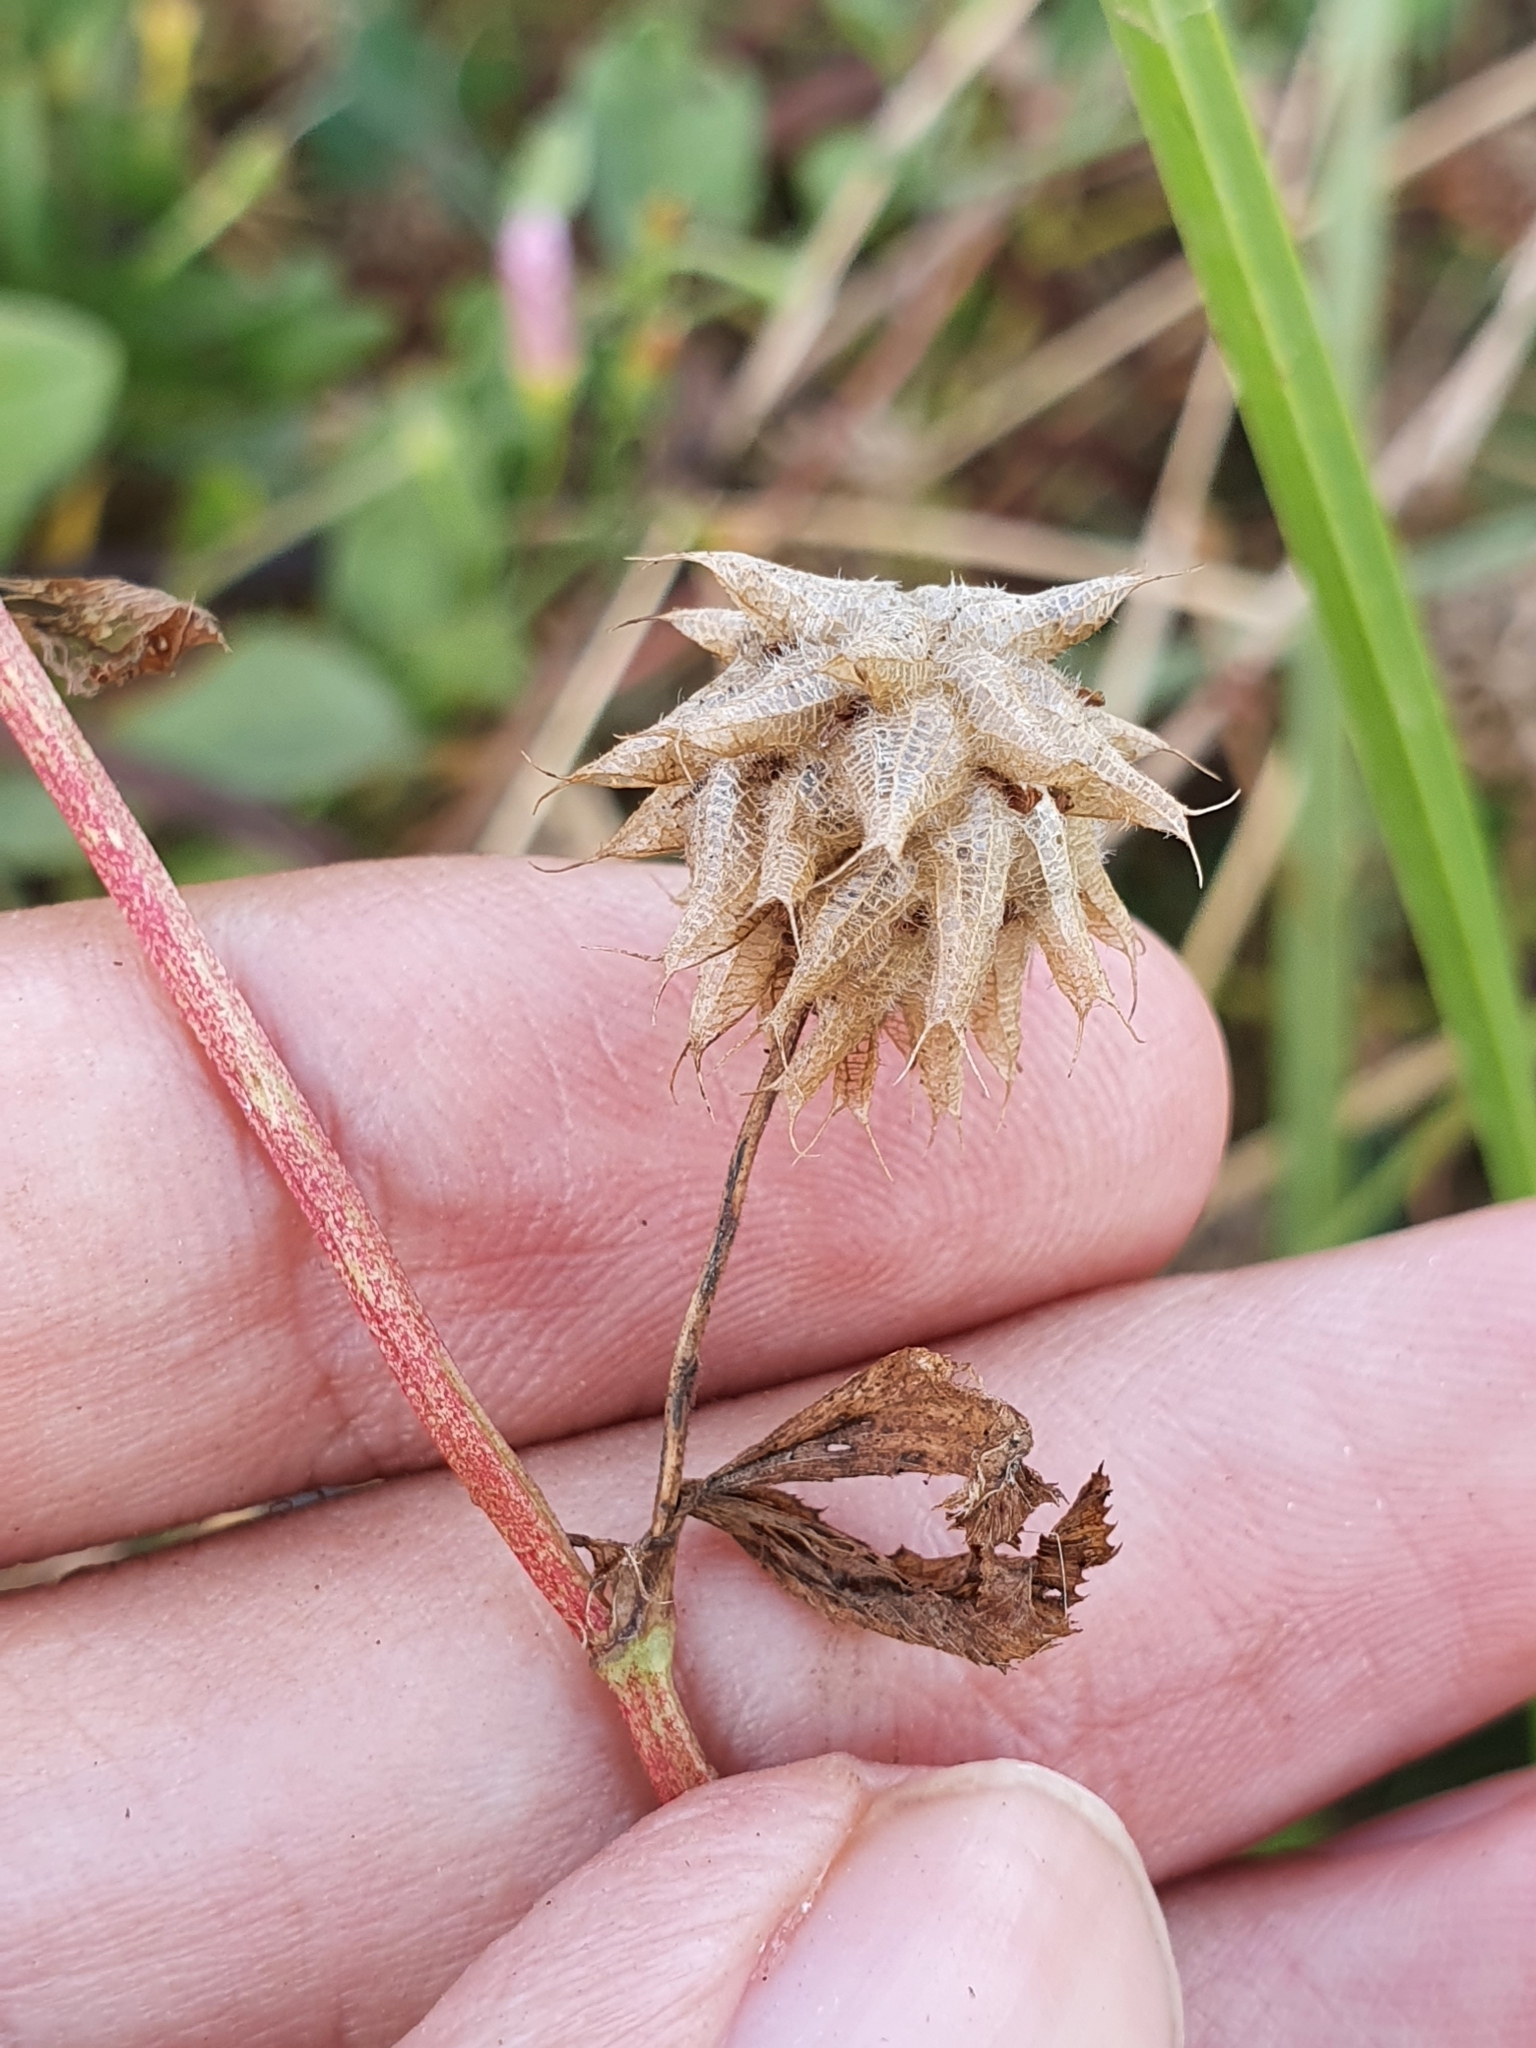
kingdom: Plantae
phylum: Tracheophyta
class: Magnoliopsida
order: Fabales
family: Fabaceae
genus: Trifolium
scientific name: Trifolium resupinatum
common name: Reversed clover
